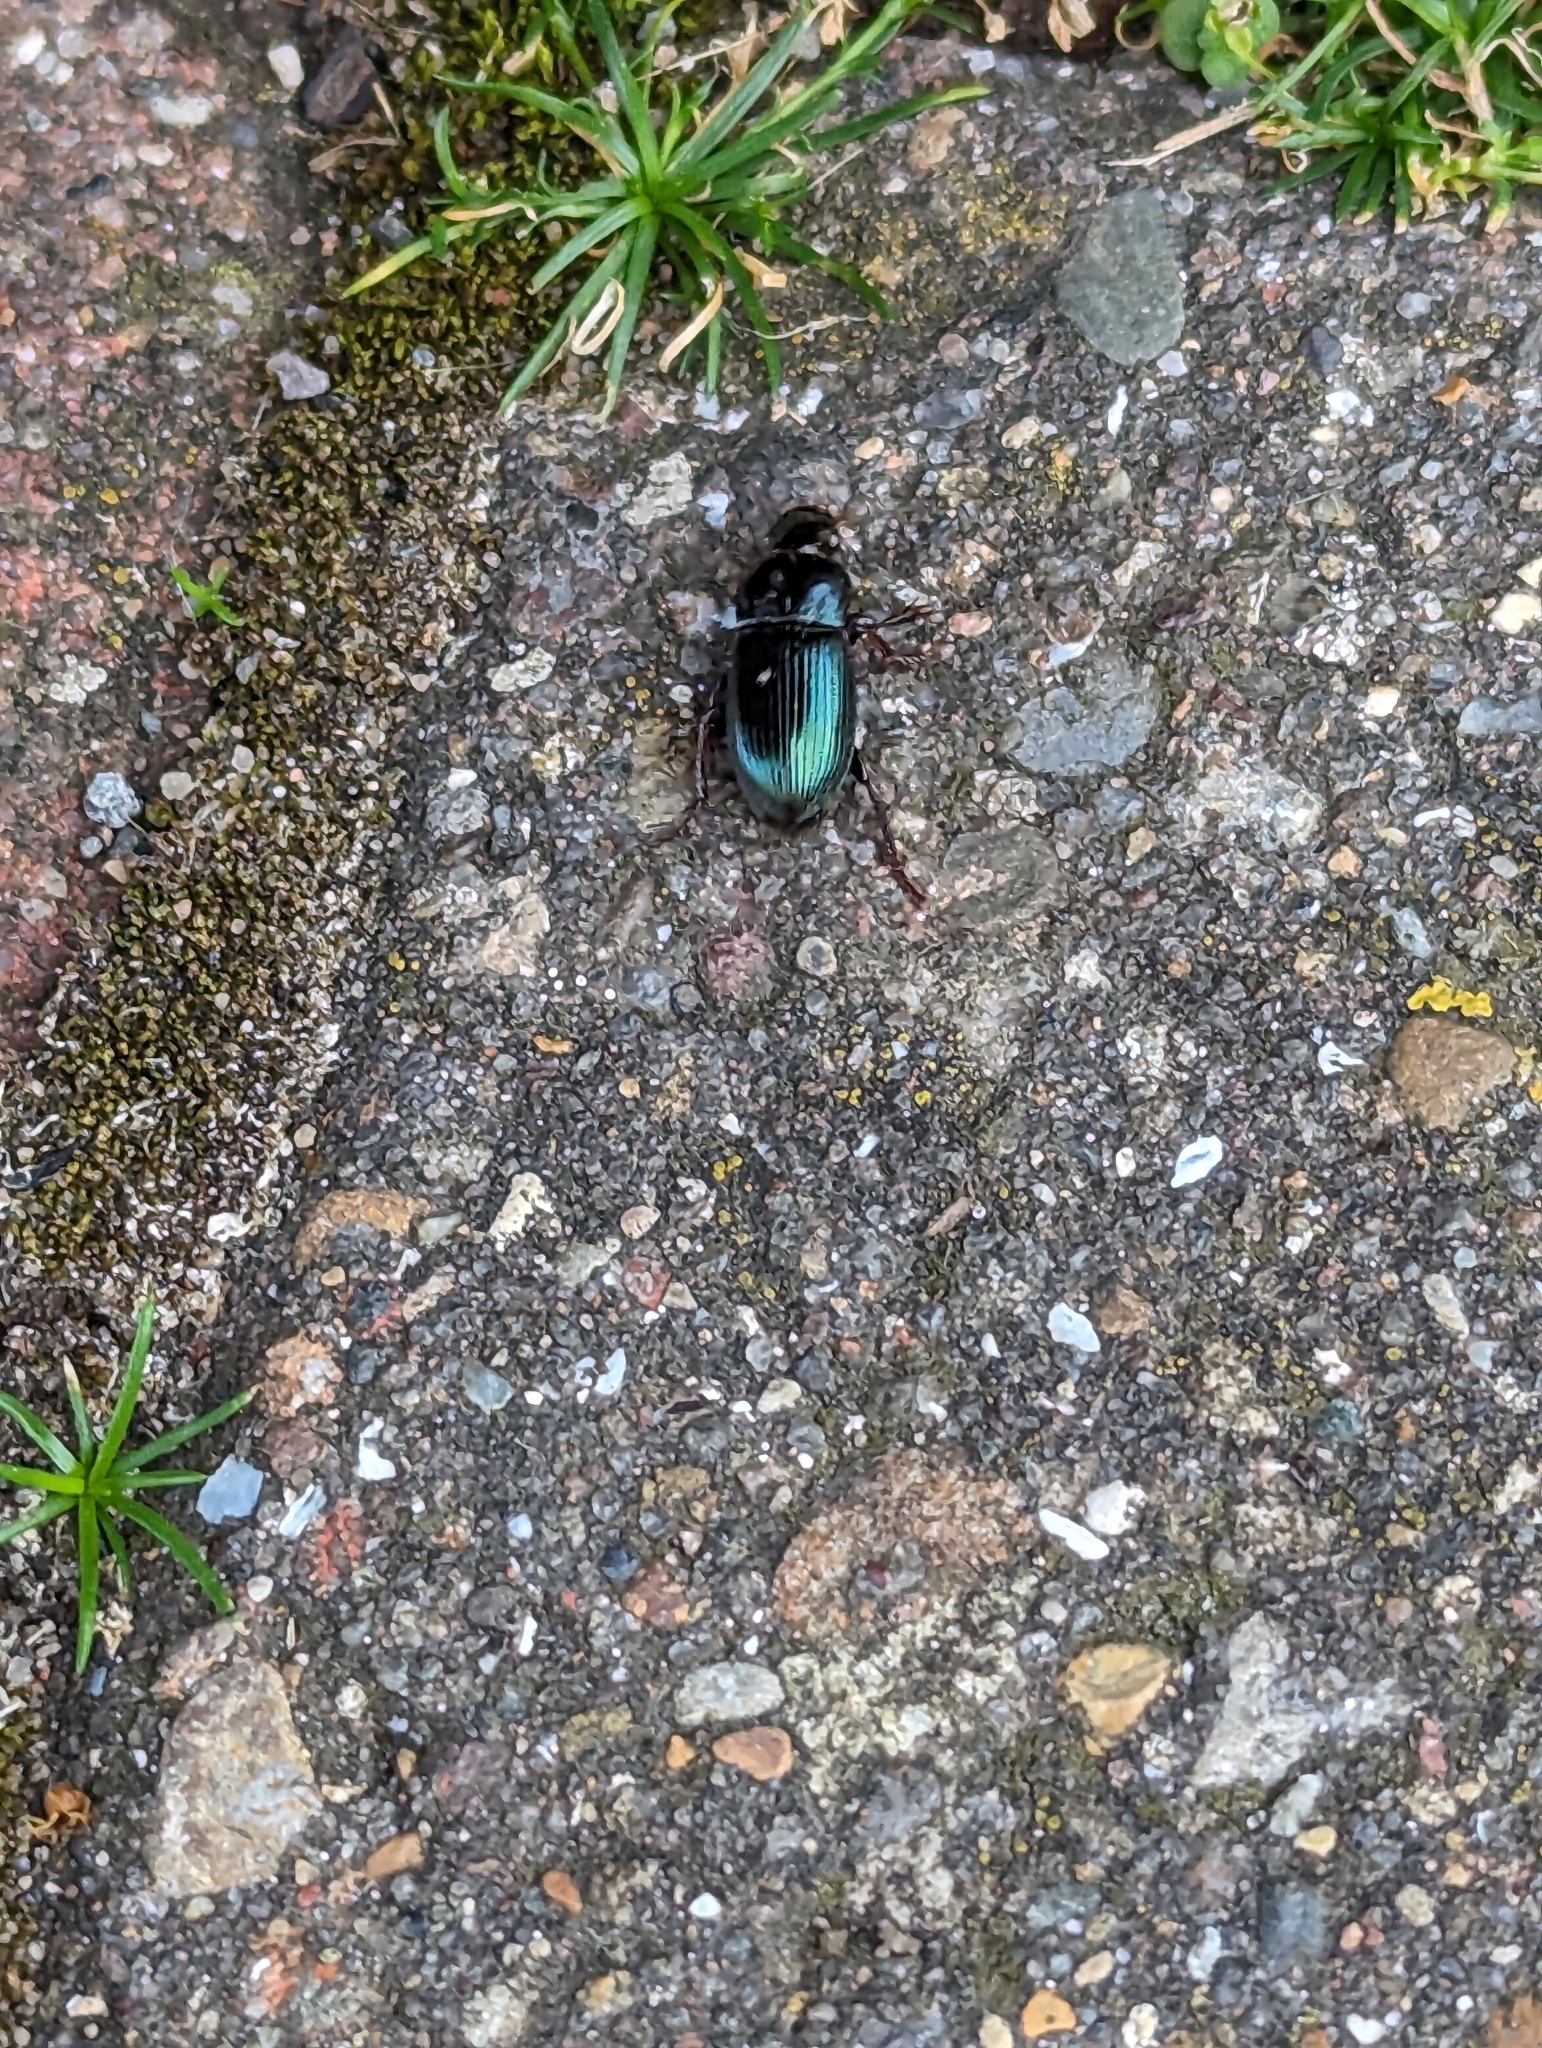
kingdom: Animalia
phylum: Arthropoda
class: Insecta
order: Coleoptera
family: Carabidae
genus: Harpalus
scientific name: Harpalus rubripes
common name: Red-legged harp ground beetle
